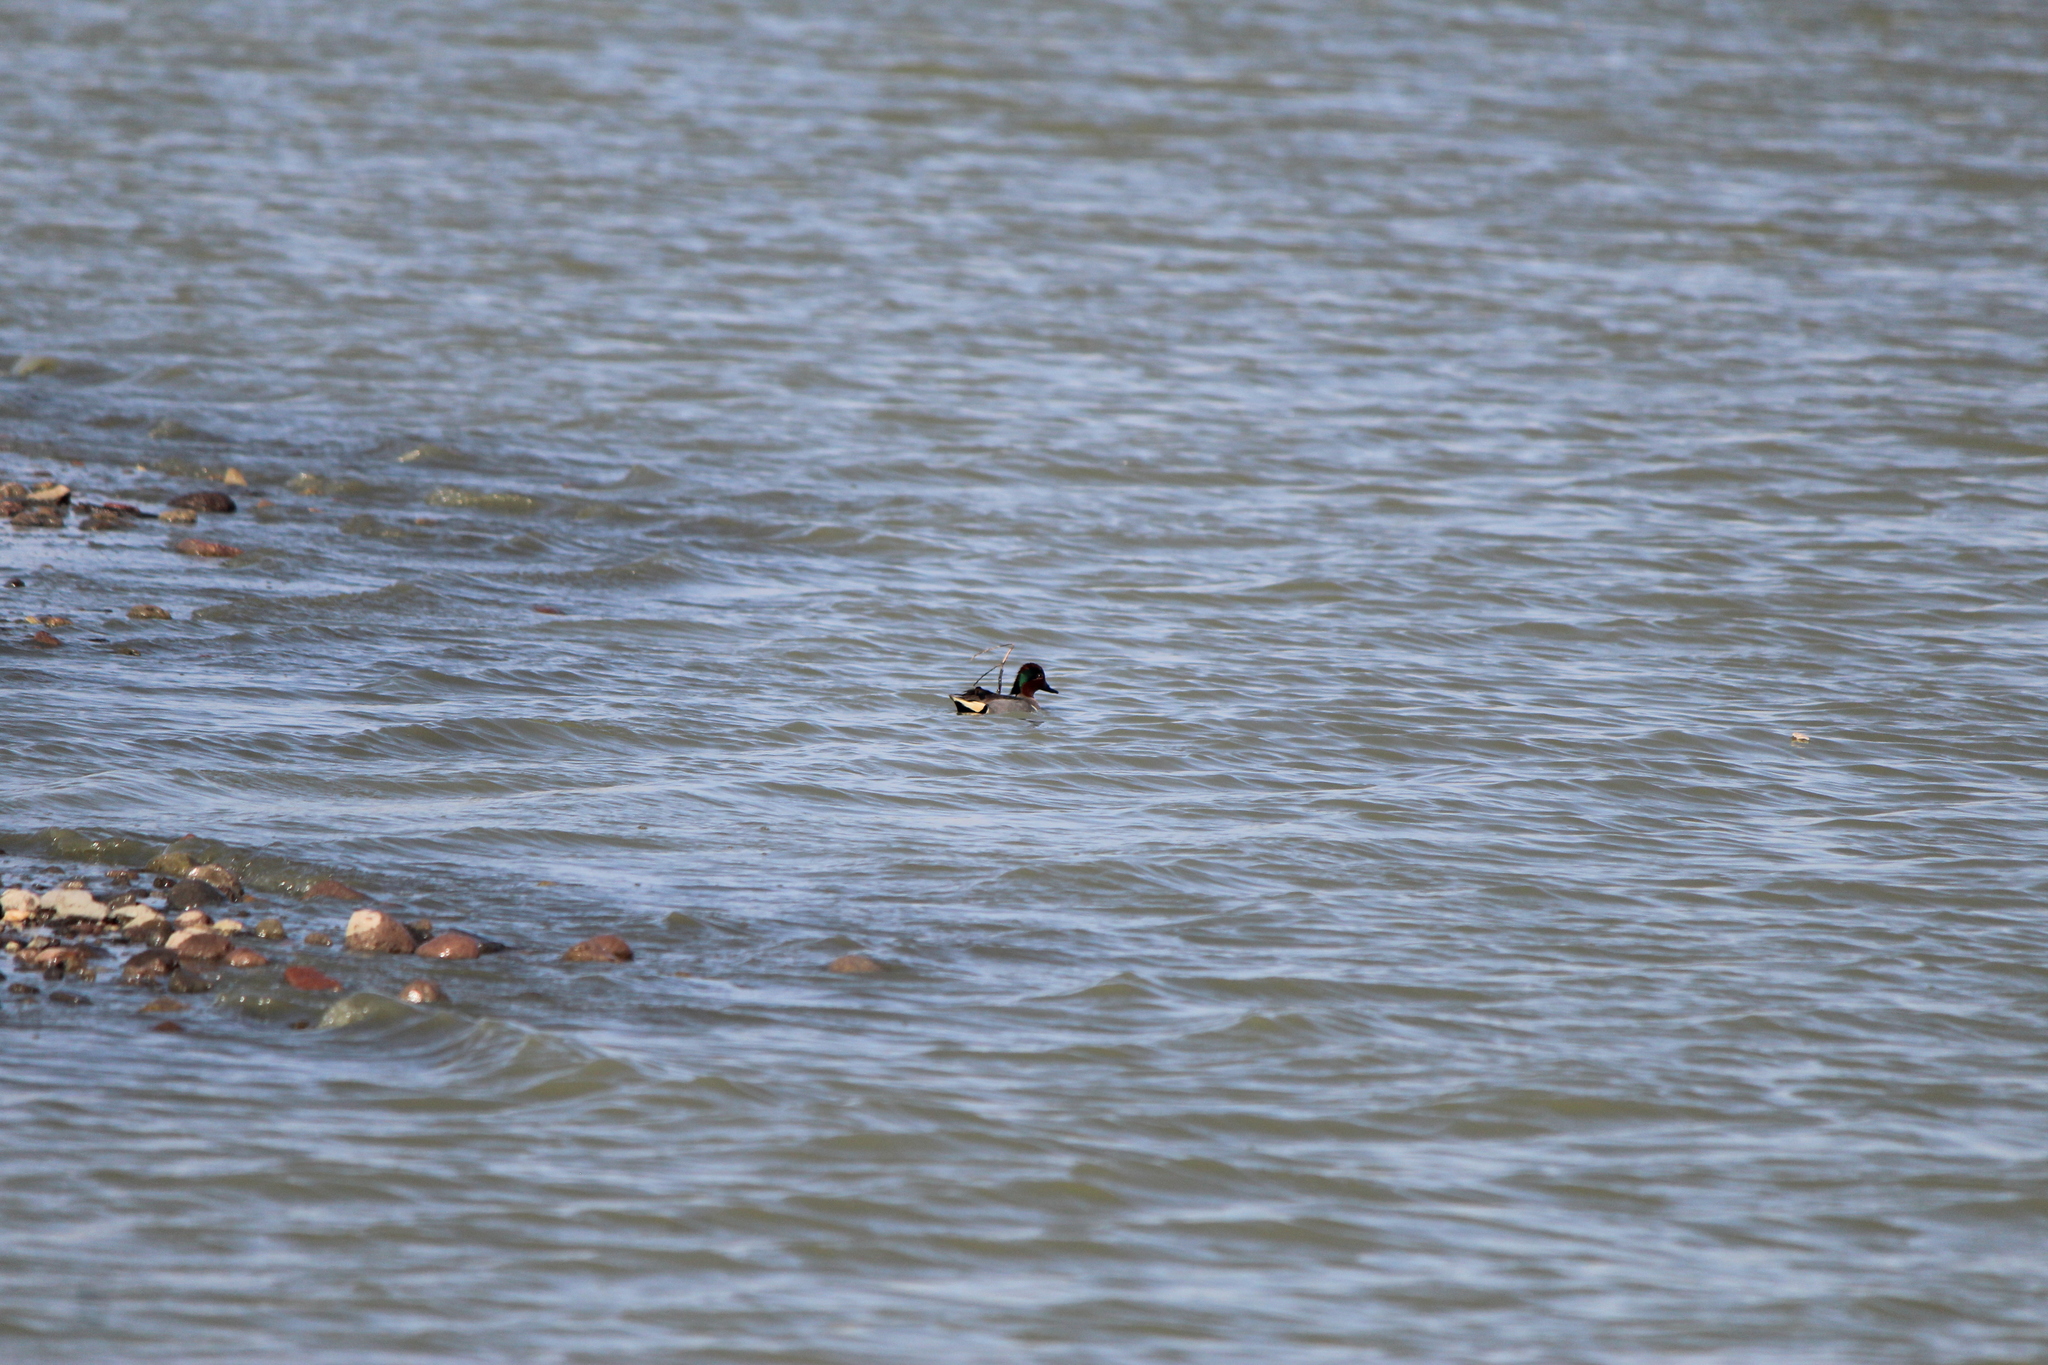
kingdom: Animalia
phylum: Chordata
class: Aves
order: Anseriformes
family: Anatidae
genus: Anas
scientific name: Anas crecca
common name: Eurasian teal
